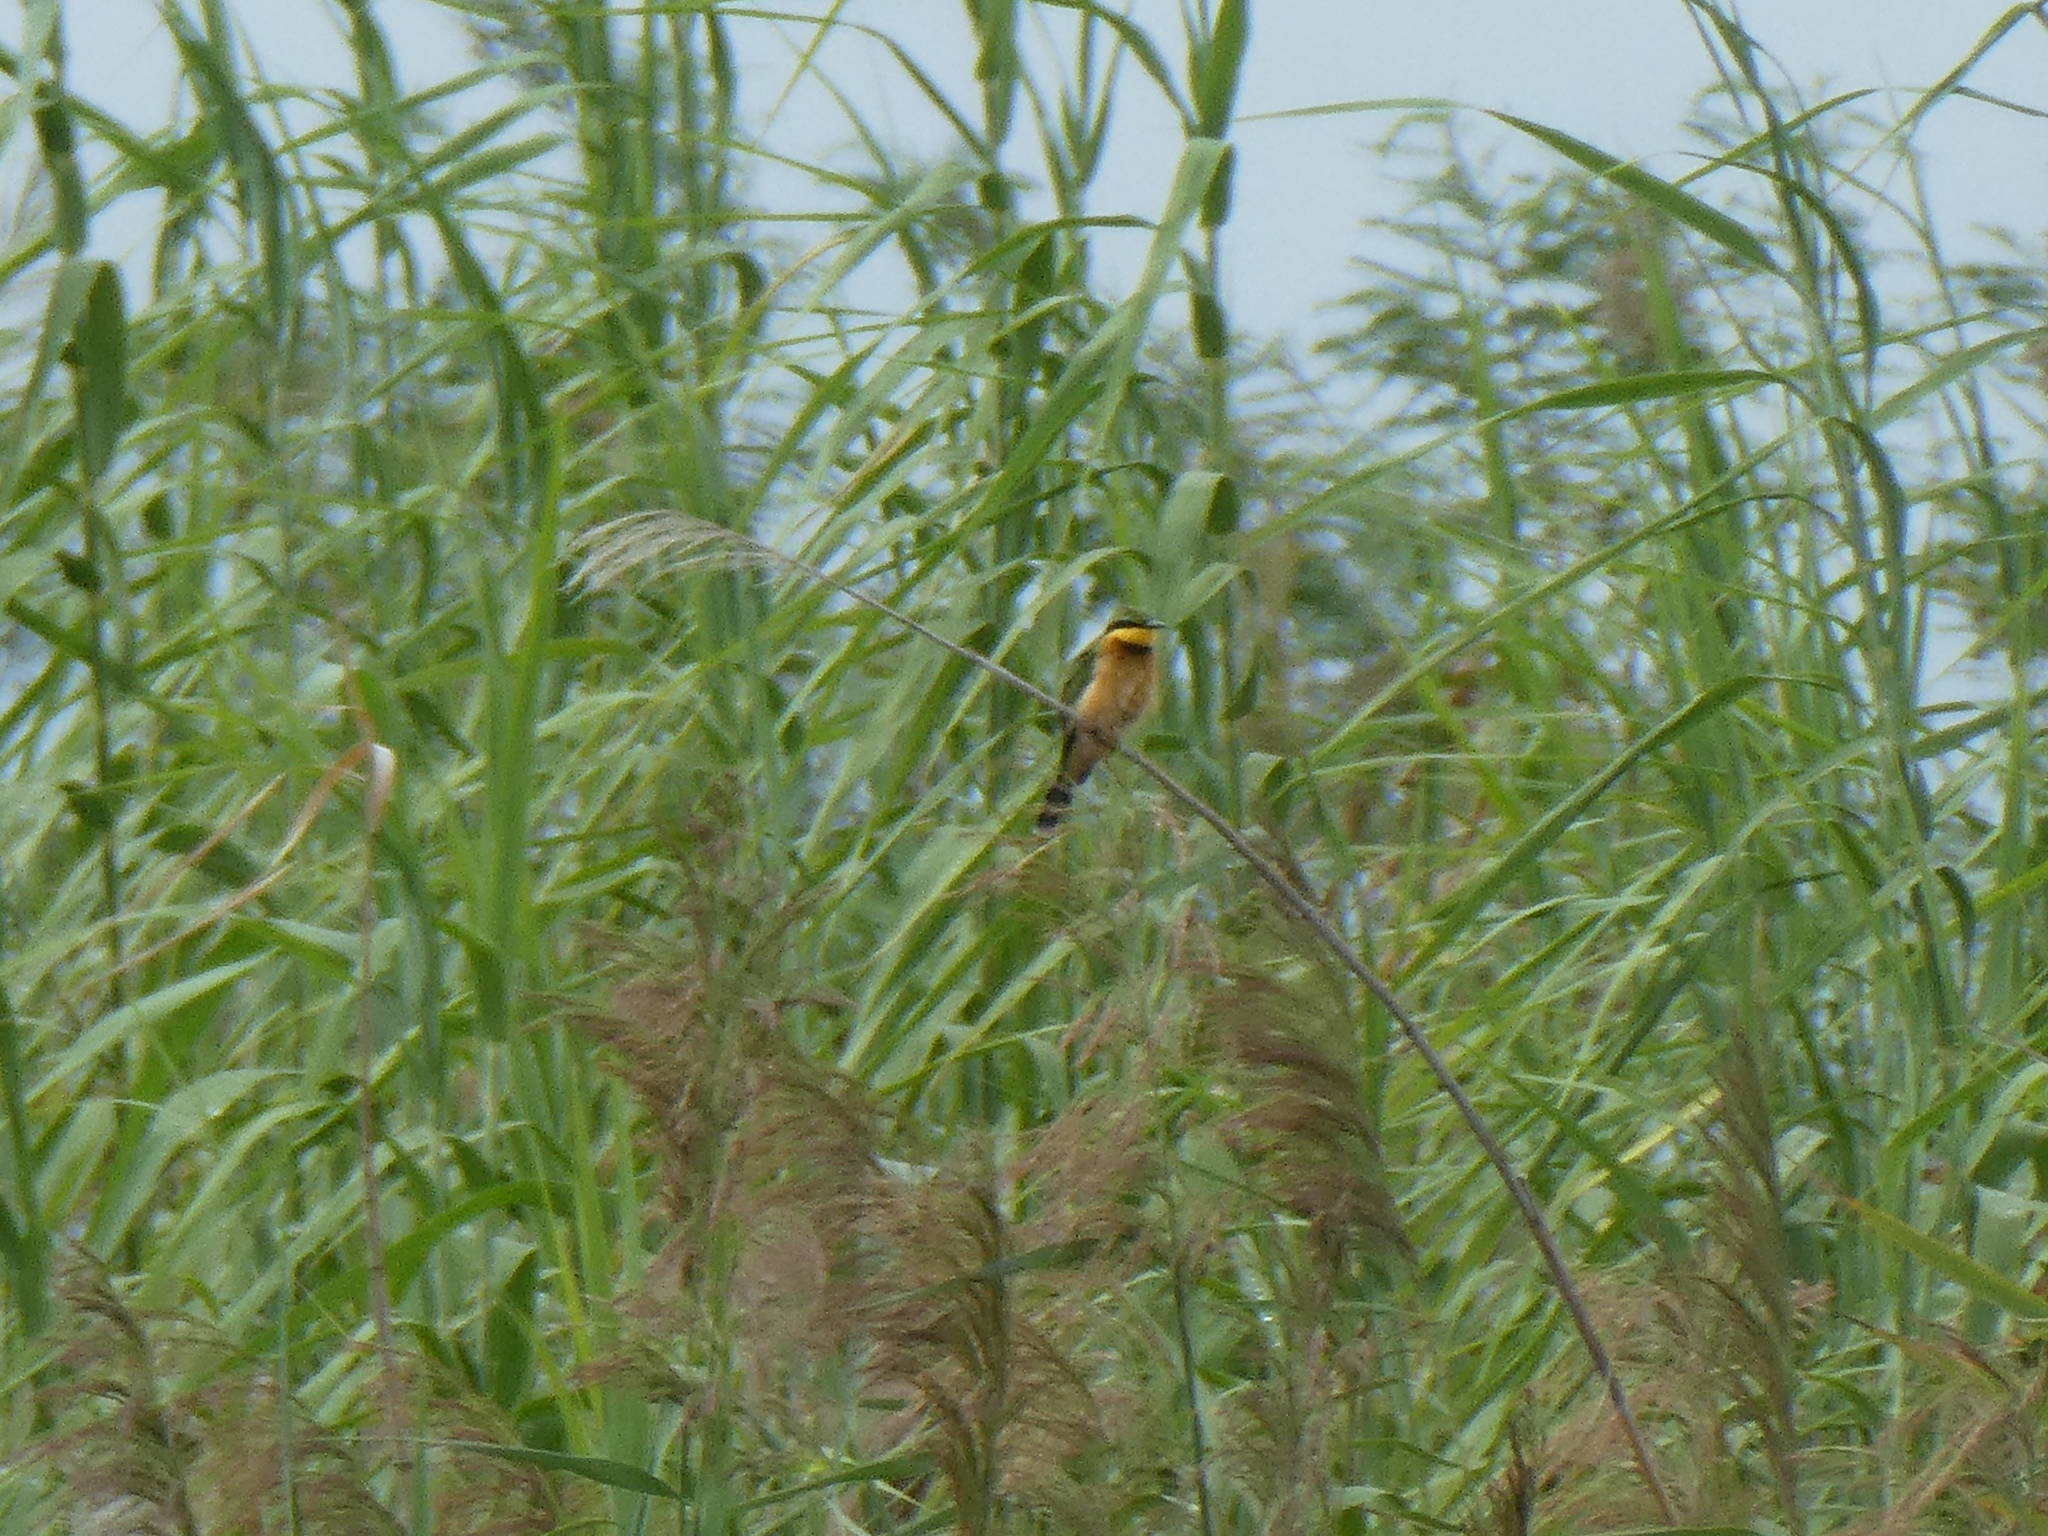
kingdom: Animalia
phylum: Chordata
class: Aves
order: Coraciiformes
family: Meropidae
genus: Merops
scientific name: Merops pusillus
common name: Little bee-eater
